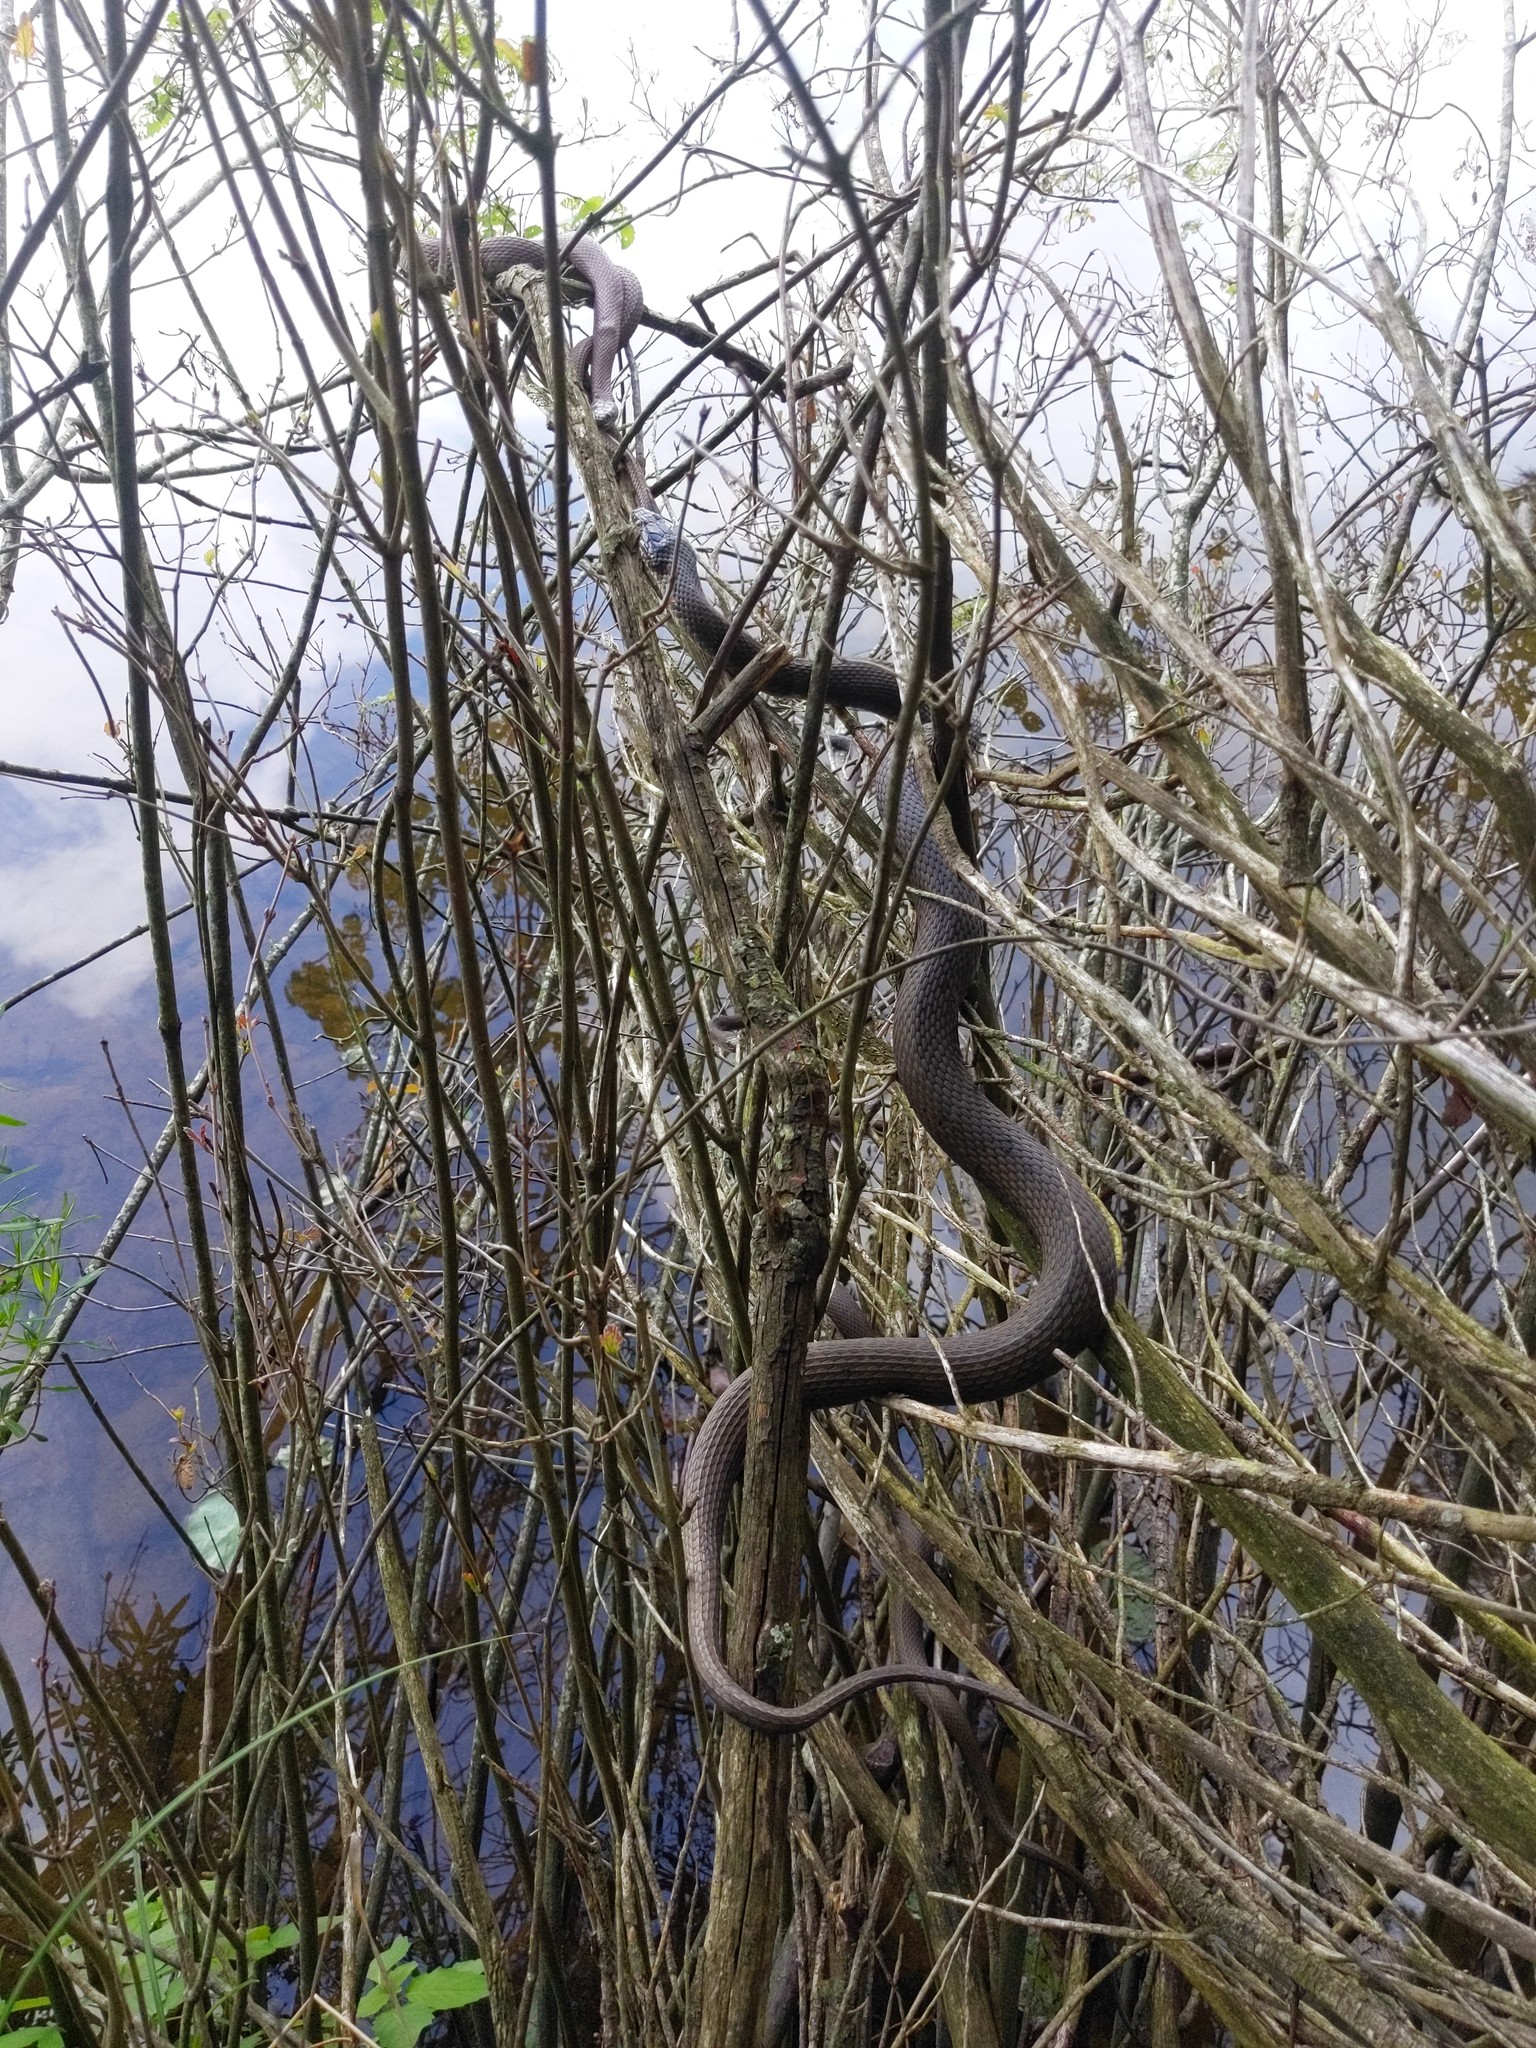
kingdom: Animalia
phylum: Chordata
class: Squamata
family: Colubridae
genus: Nerodia
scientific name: Nerodia sipedon
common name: Northern water snake
